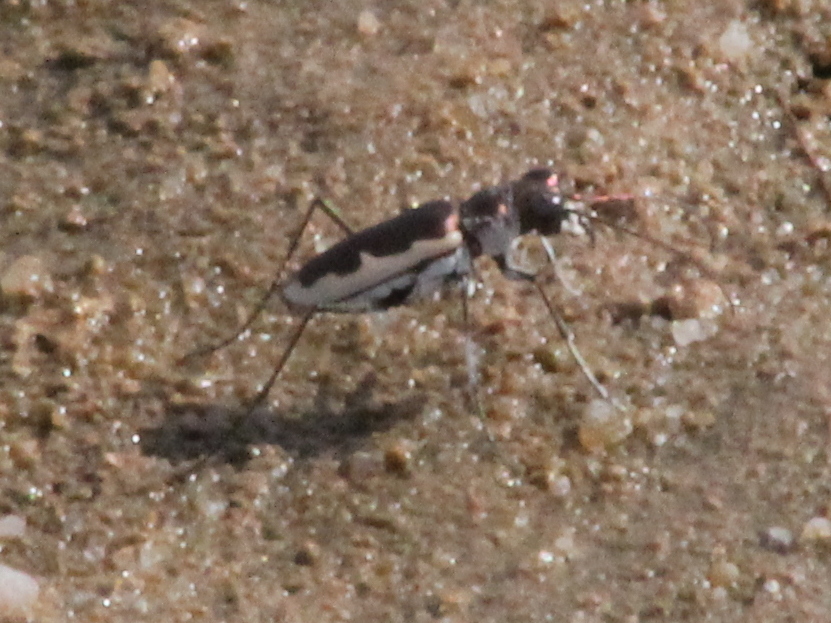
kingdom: Animalia
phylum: Arthropoda
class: Insecta
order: Coleoptera
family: Carabidae
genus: Eunota
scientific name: Eunota circumpicta
